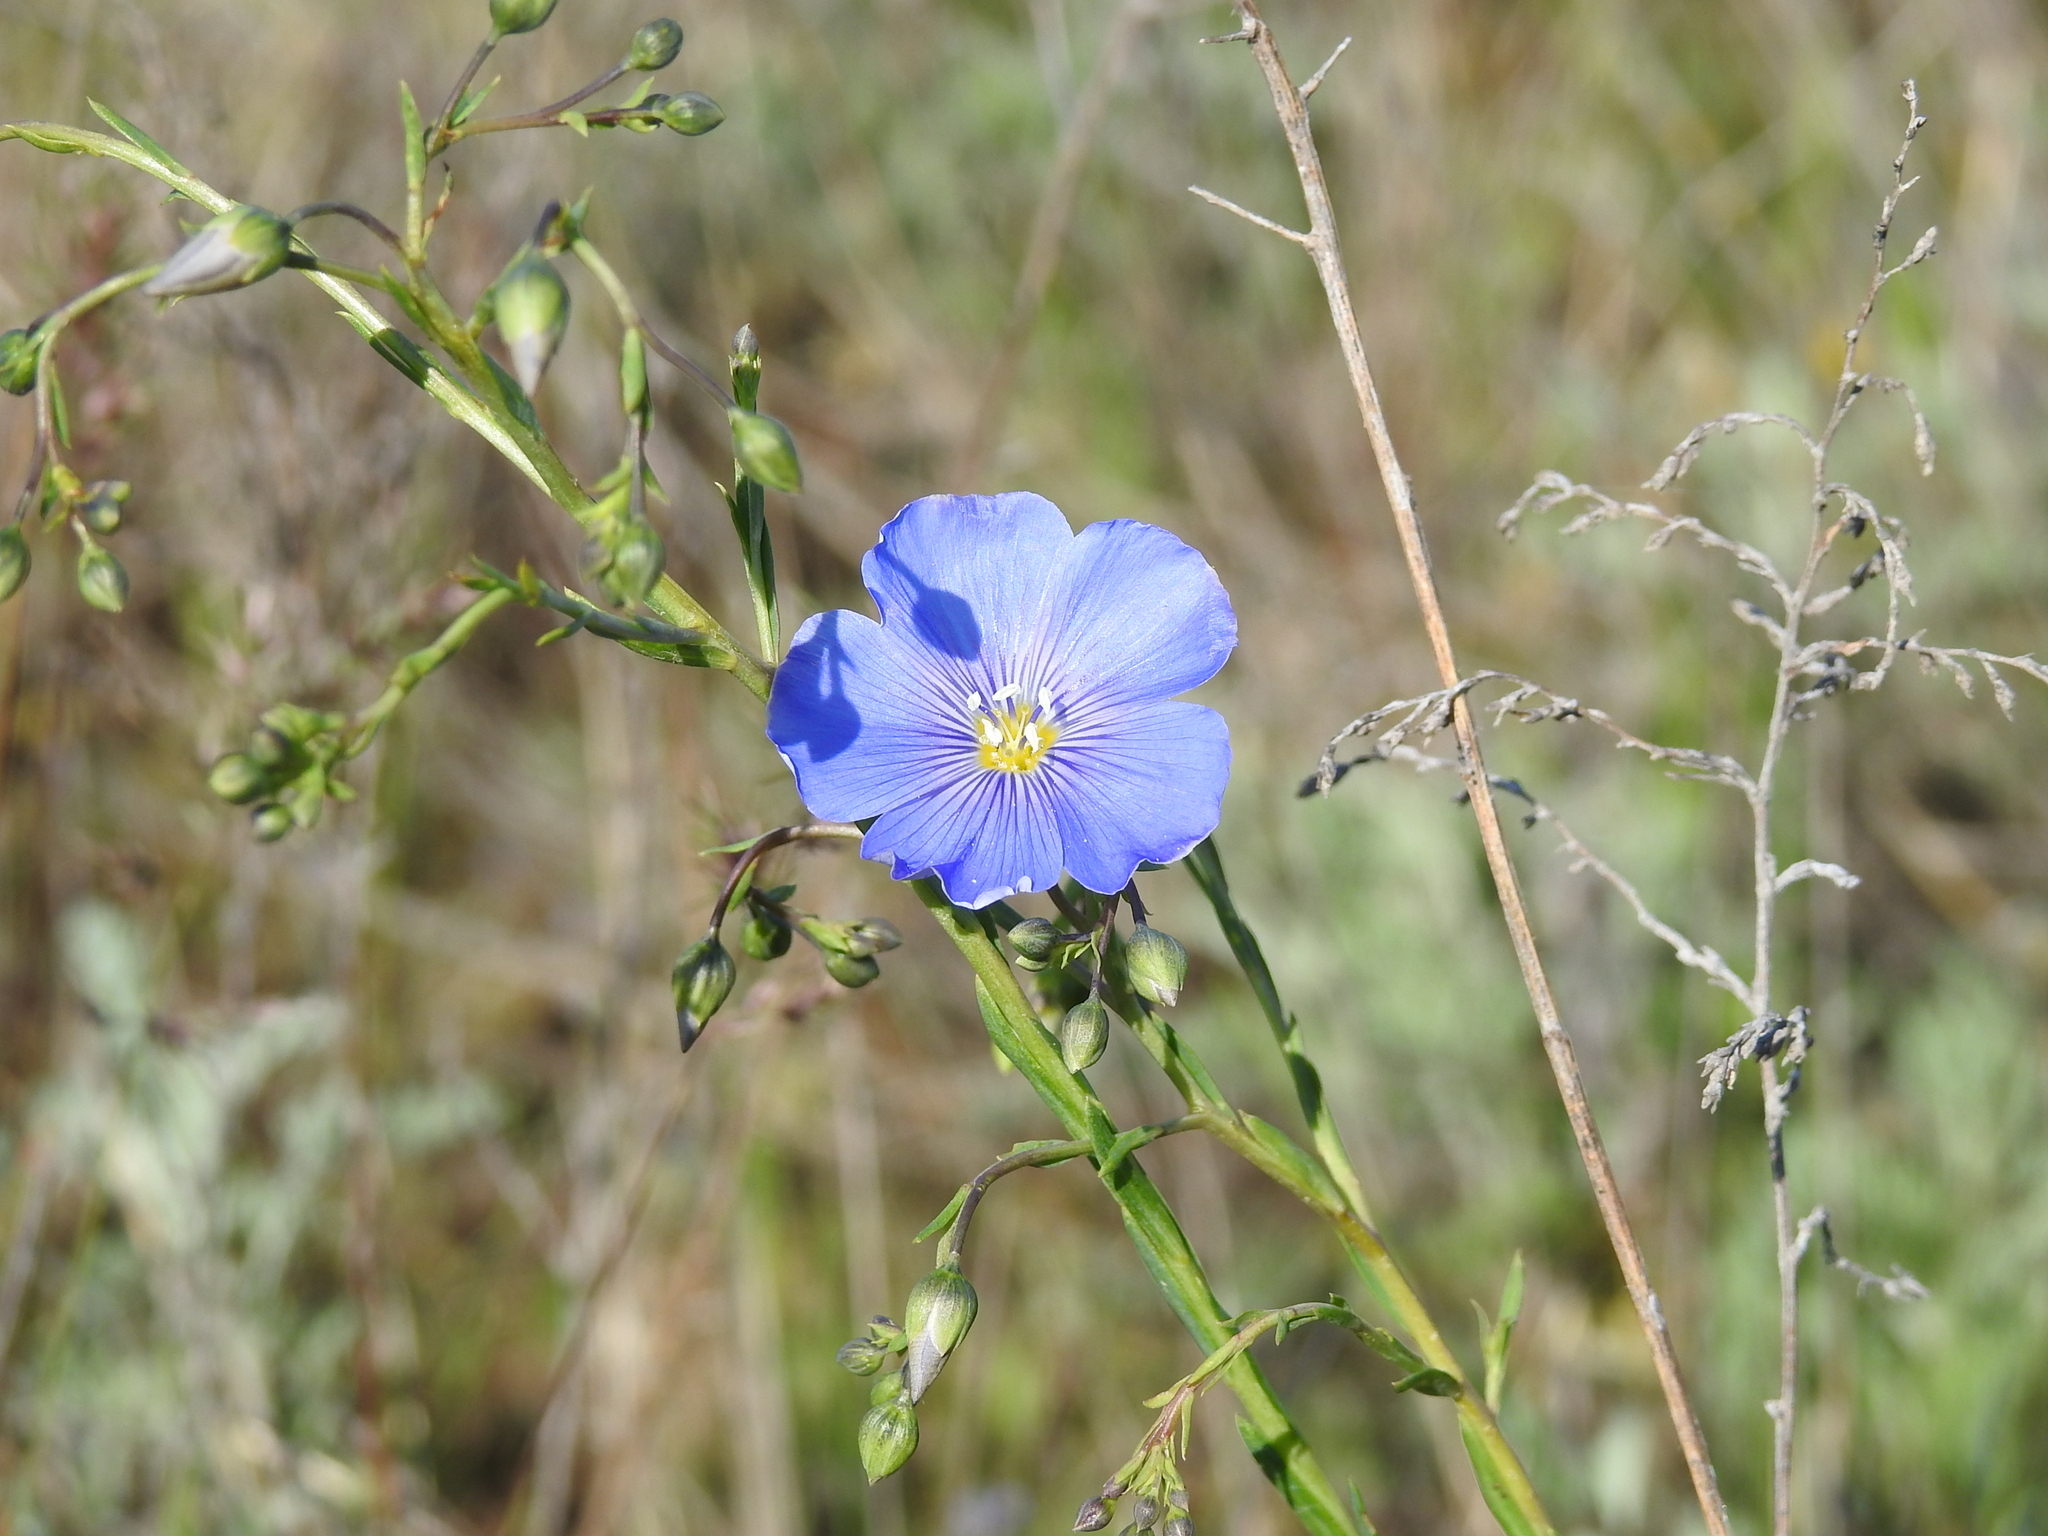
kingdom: Plantae
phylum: Tracheophyta
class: Magnoliopsida
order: Malpighiales
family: Linaceae
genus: Linum
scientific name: Linum austriacum
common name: Austrian flax
